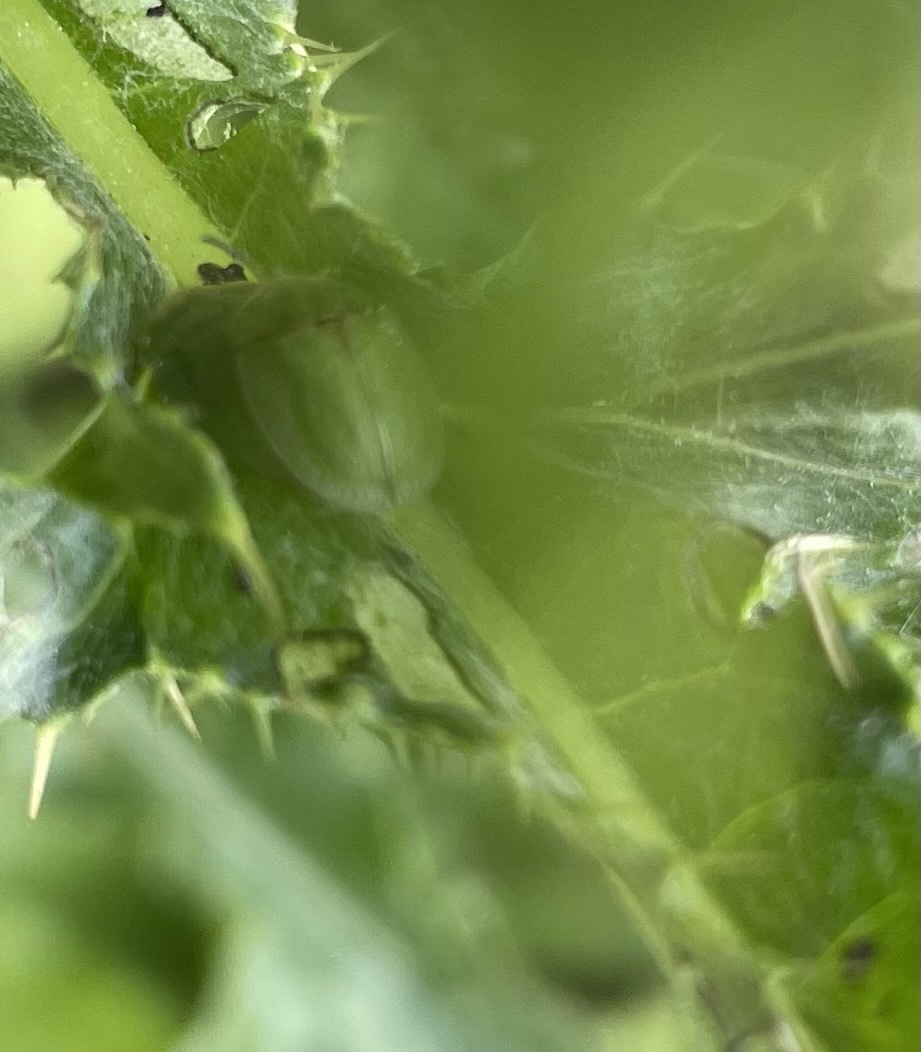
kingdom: Animalia
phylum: Arthropoda
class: Insecta
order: Coleoptera
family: Chrysomelidae
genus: Cassida
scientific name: Cassida rubiginosa
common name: Thistle tortoise beetle
